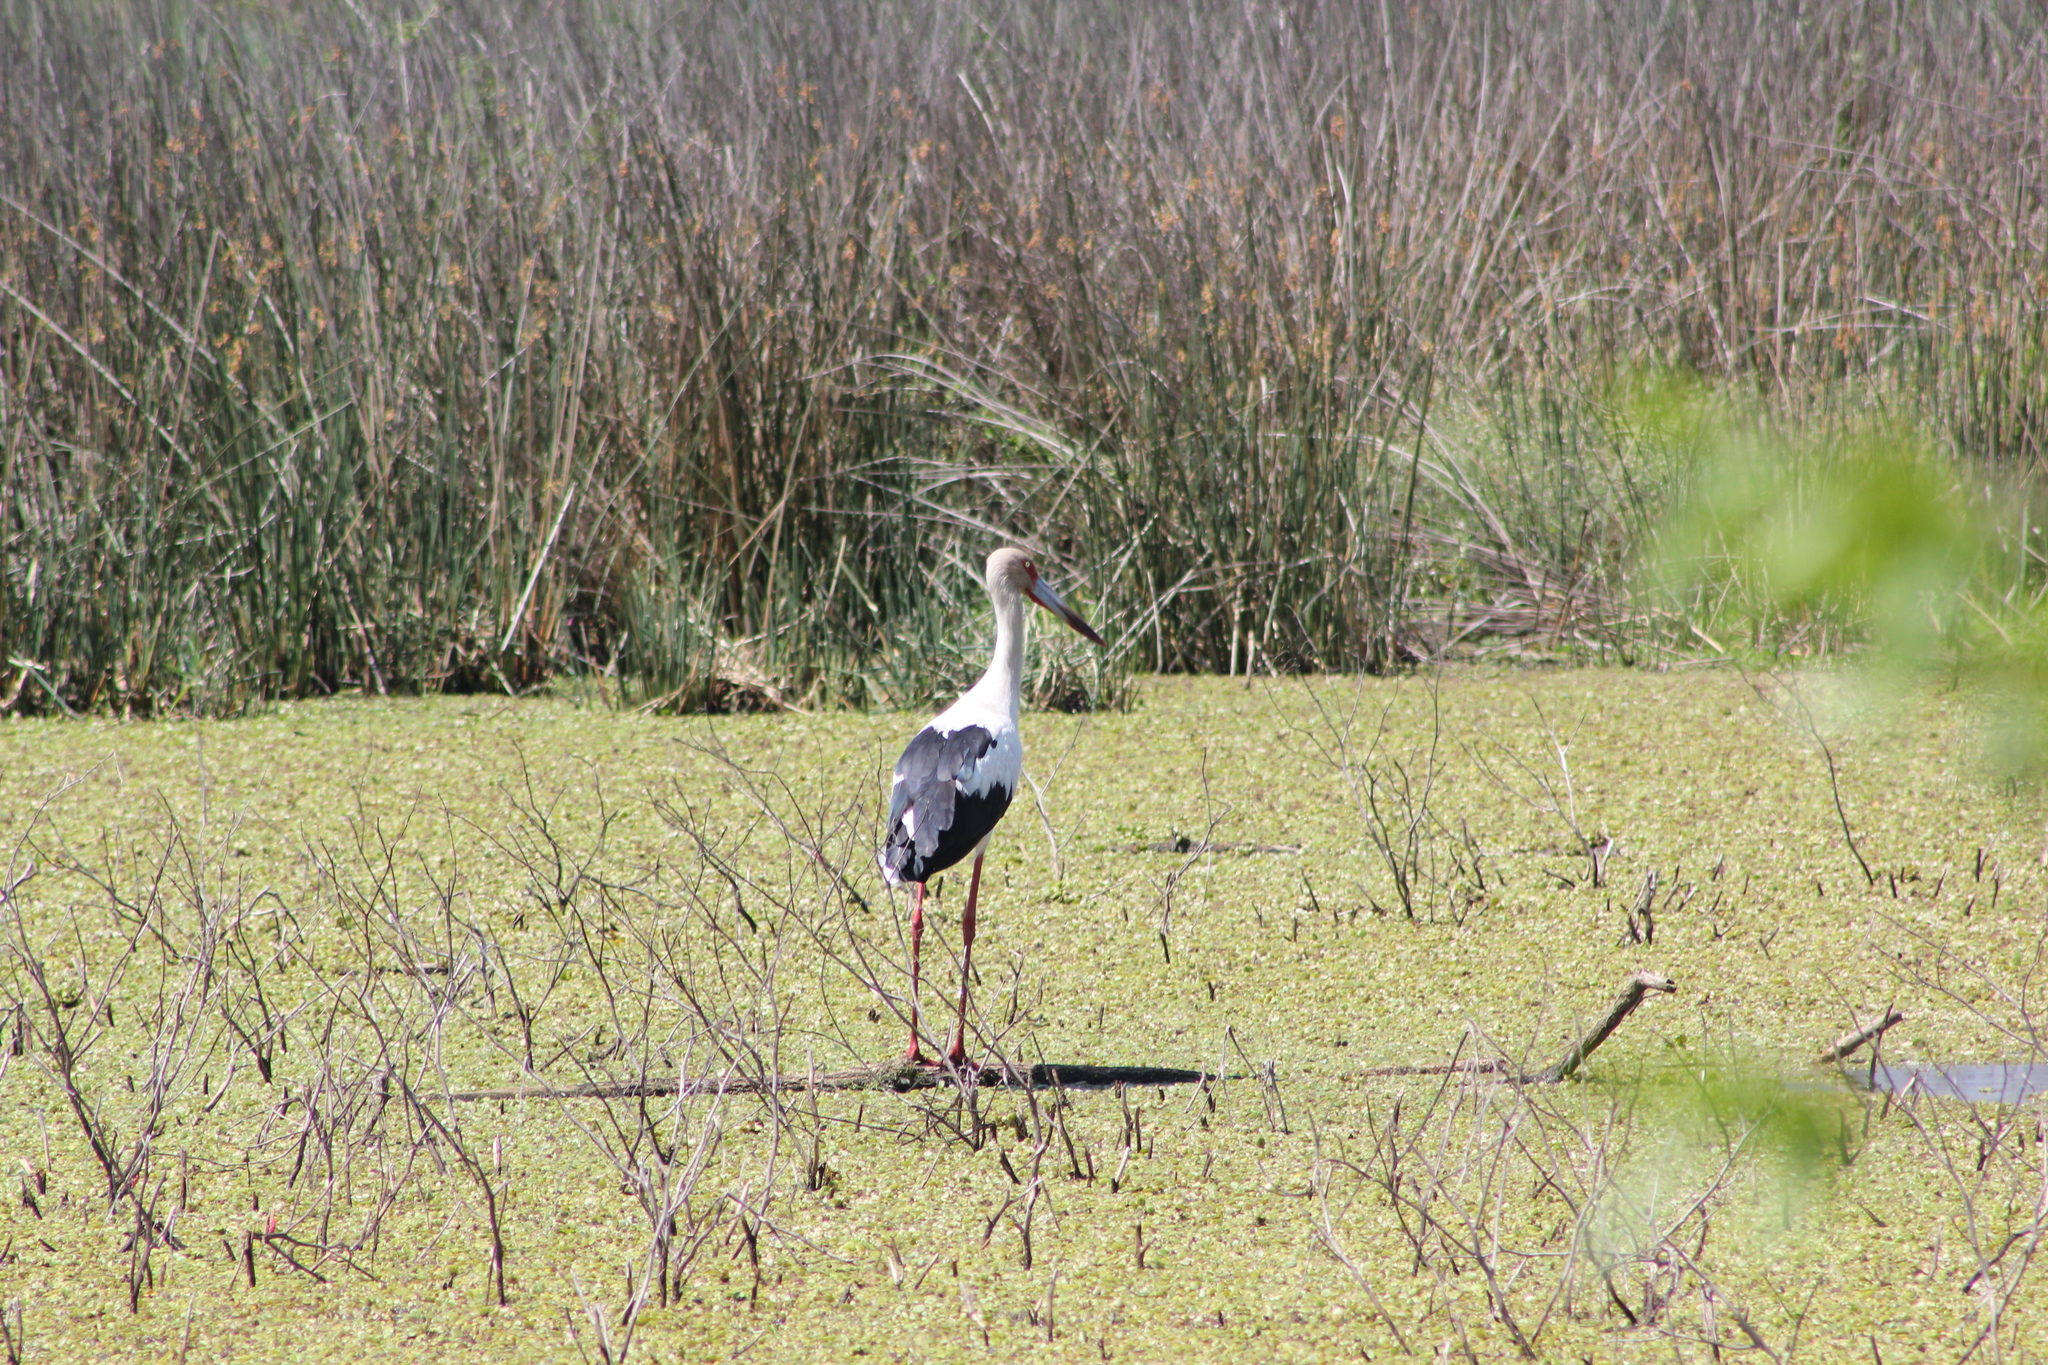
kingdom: Animalia
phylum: Chordata
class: Aves
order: Ciconiiformes
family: Ciconiidae
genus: Ciconia
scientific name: Ciconia maguari
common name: Maguari stork
